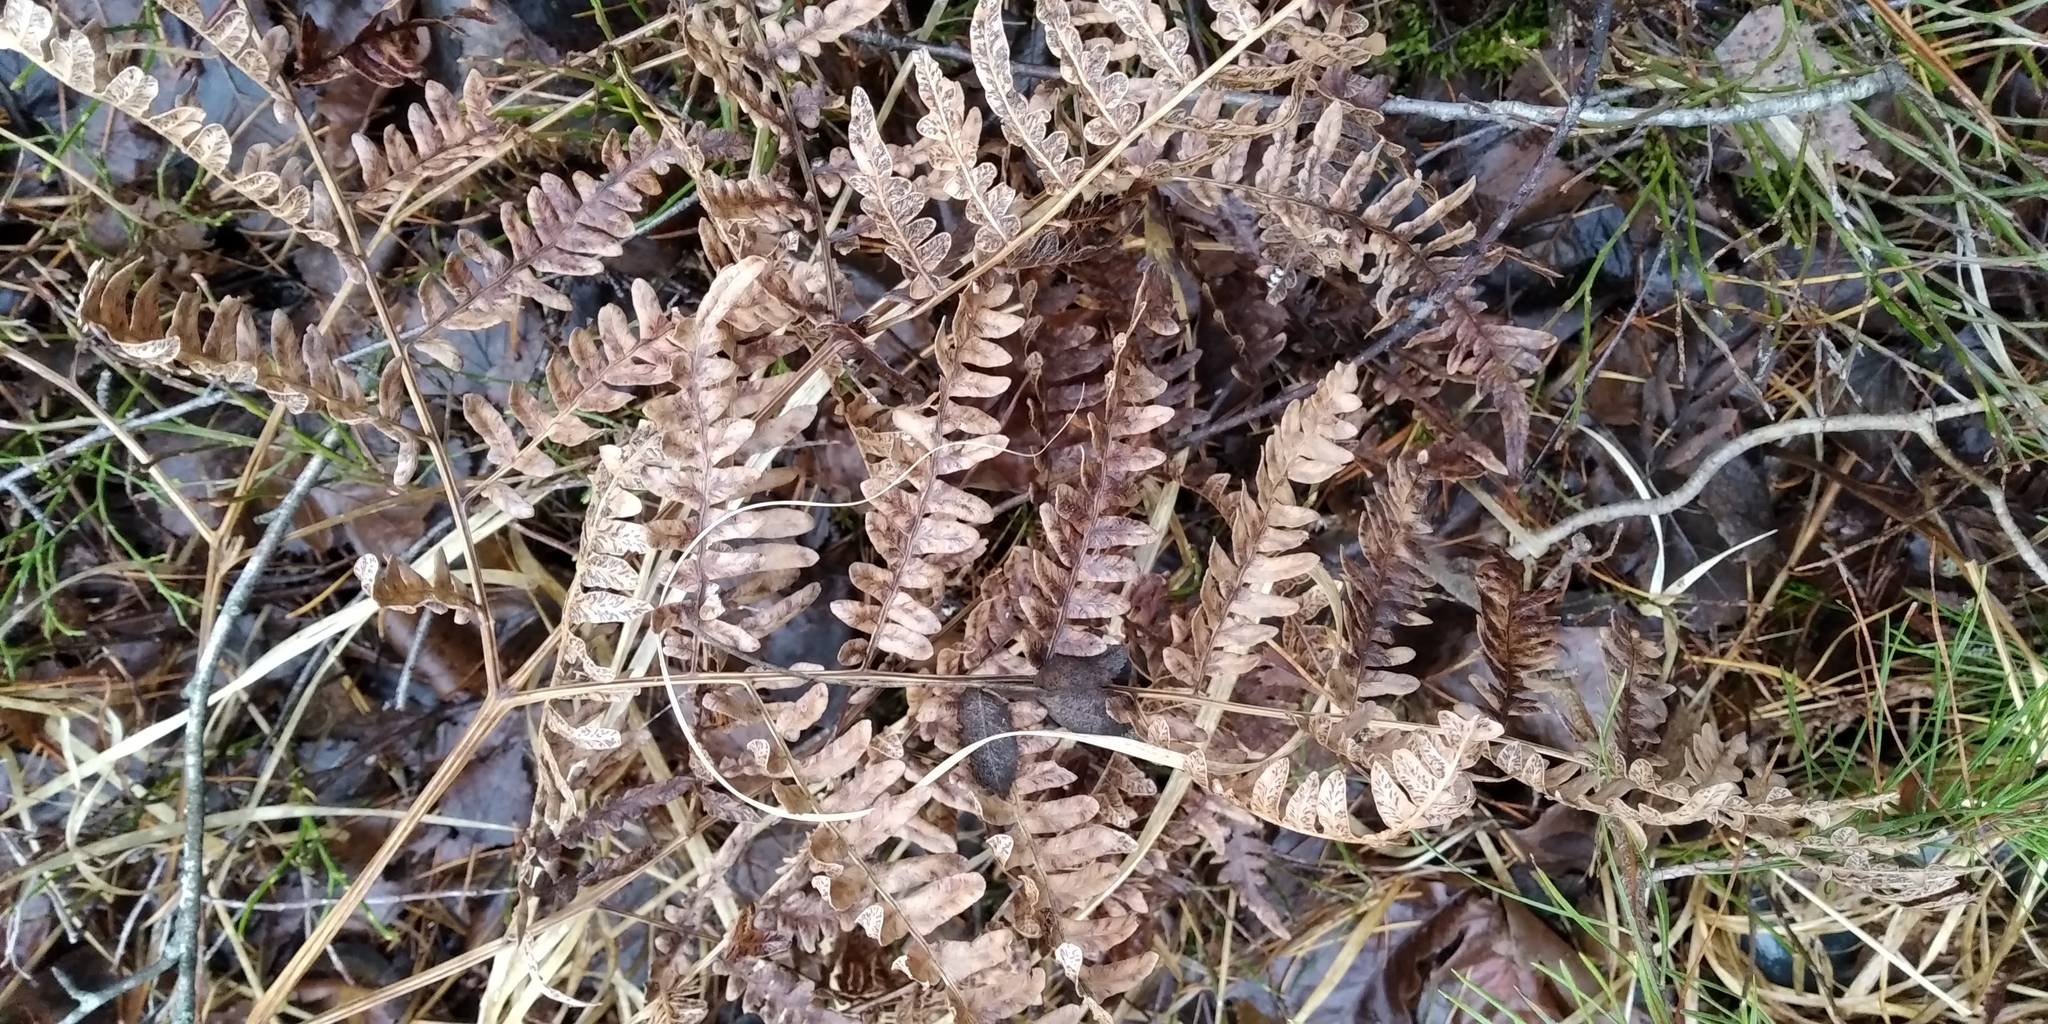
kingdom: Plantae
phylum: Tracheophyta
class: Polypodiopsida
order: Polypodiales
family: Dennstaedtiaceae
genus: Pteridium
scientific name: Pteridium aquilinum
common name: Bracken
